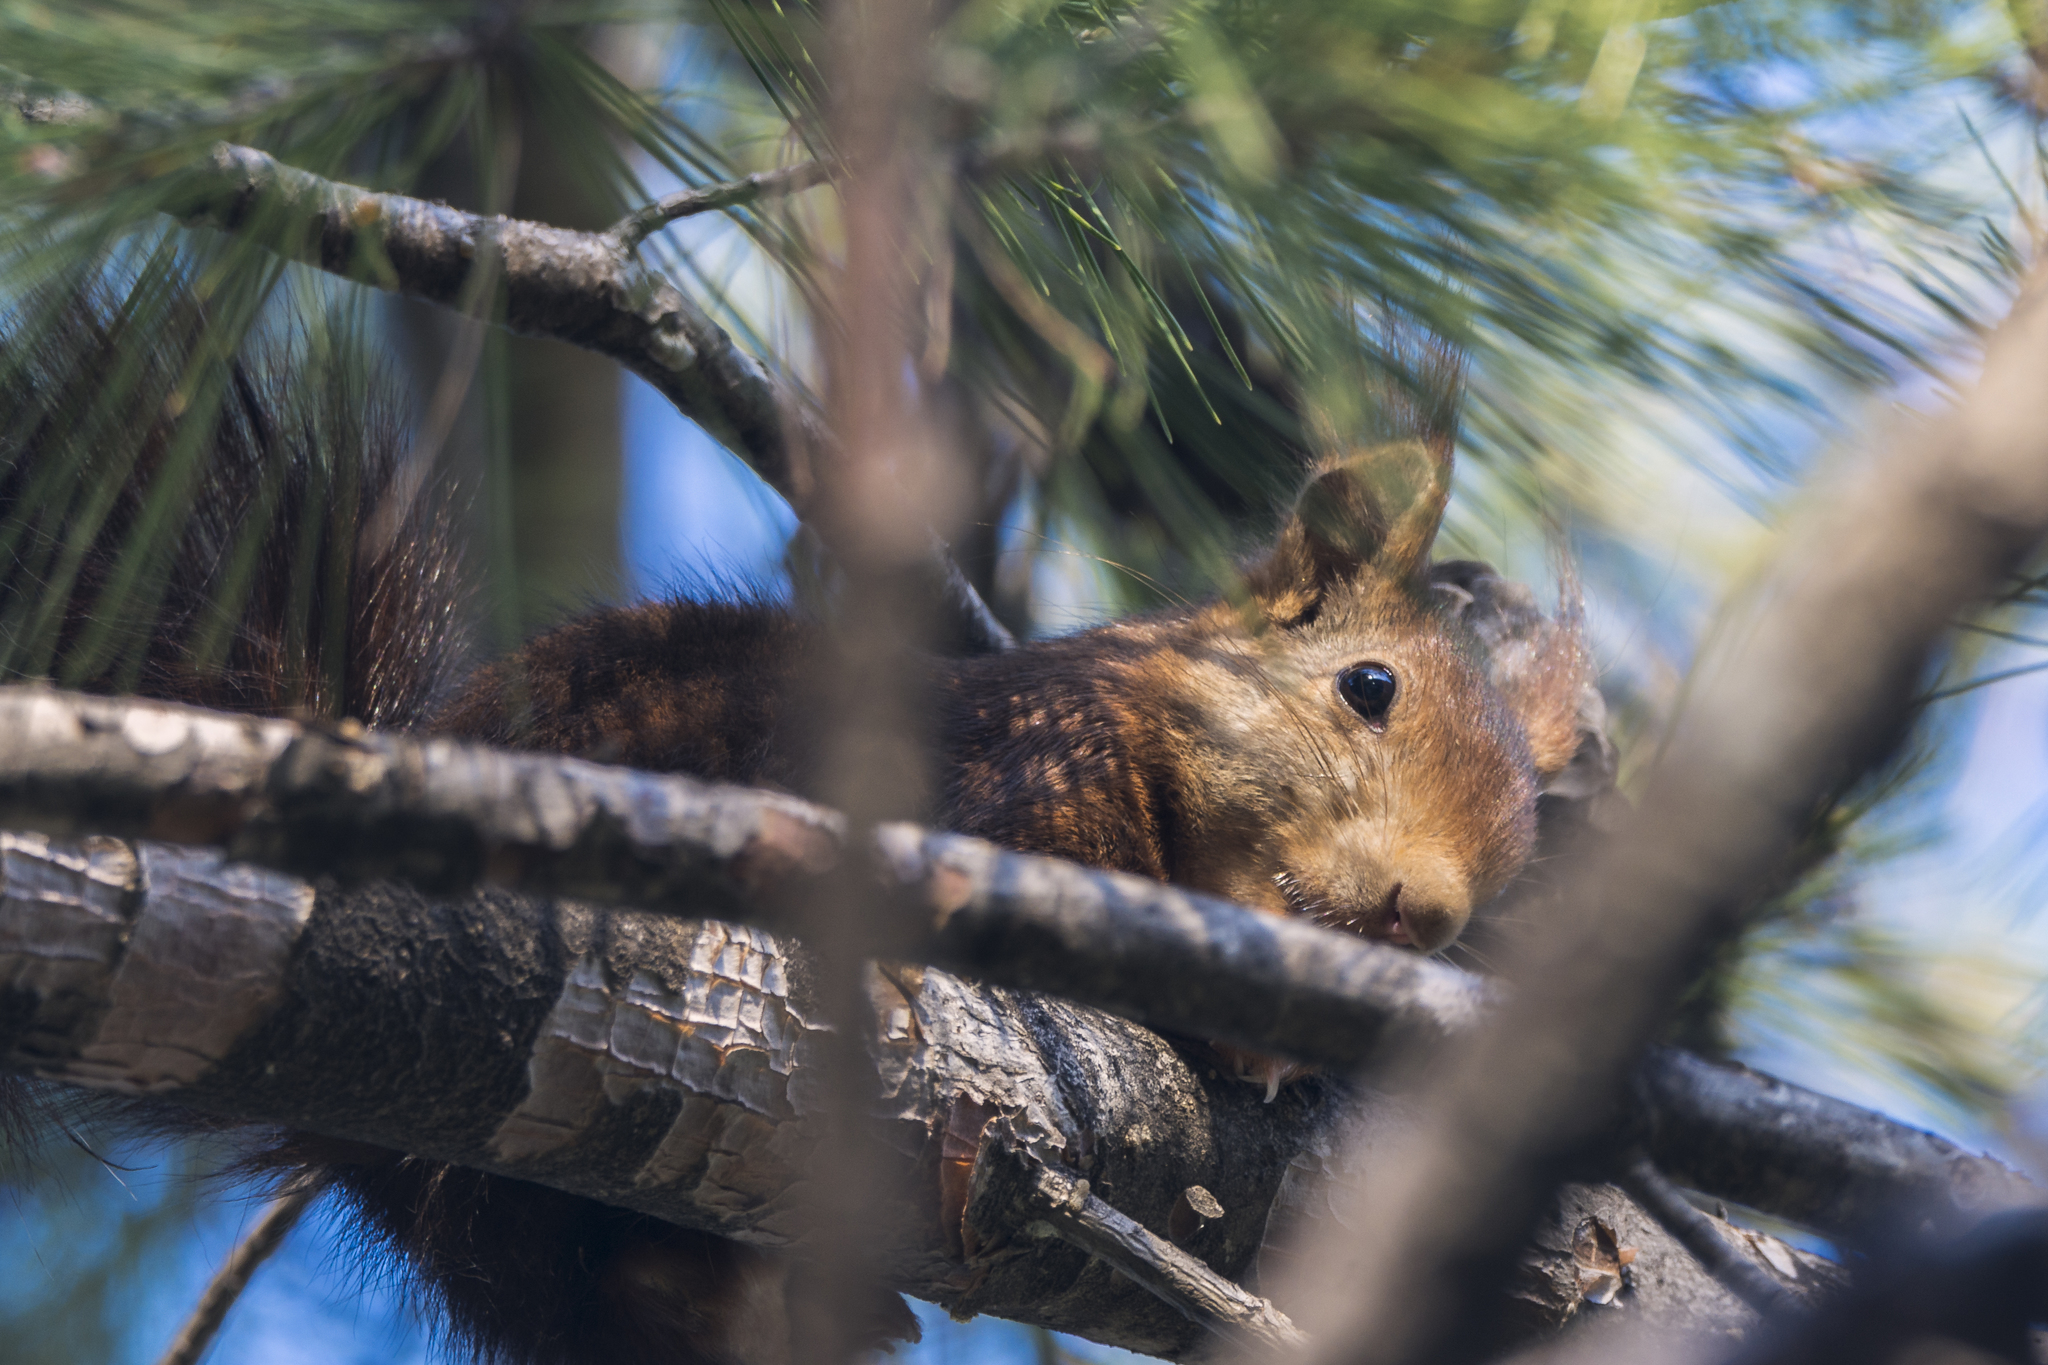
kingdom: Animalia
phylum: Chordata
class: Mammalia
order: Rodentia
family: Sciuridae
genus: Sciurus
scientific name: Sciurus vulgaris
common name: Eurasian red squirrel
